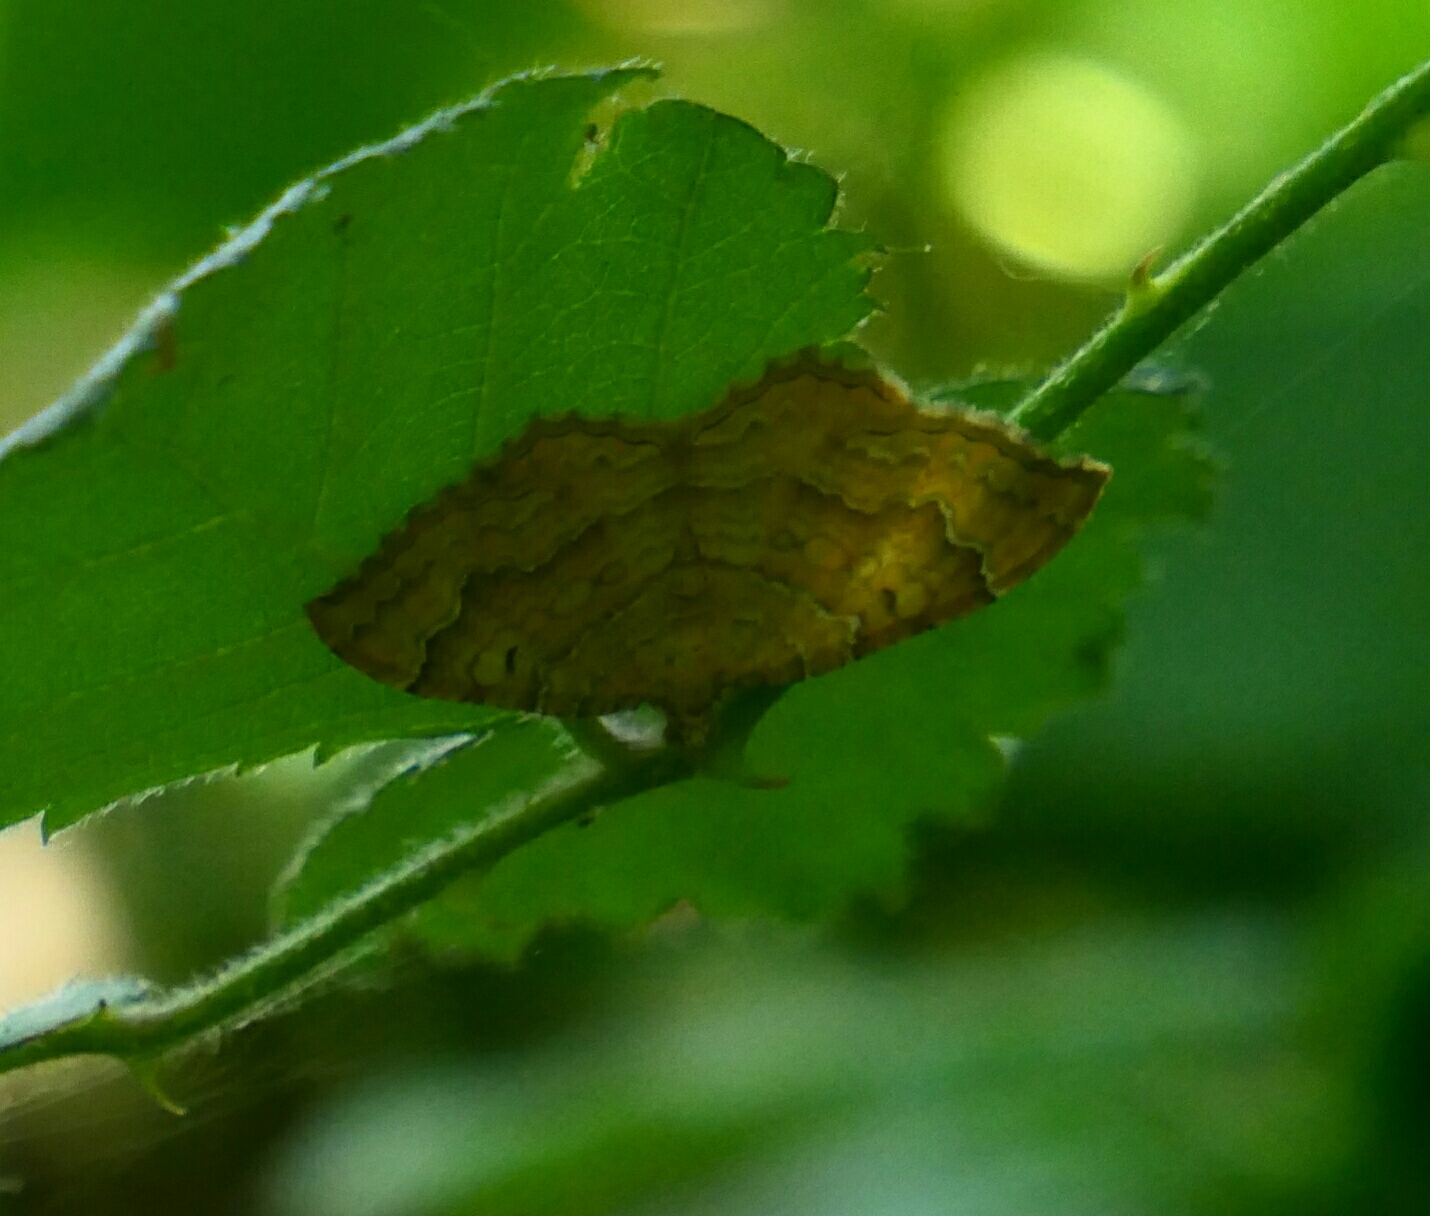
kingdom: Animalia
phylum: Arthropoda
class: Insecta
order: Lepidoptera
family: Geometridae
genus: Camptogramma
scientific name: Camptogramma bilineata
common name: Yellow shell
